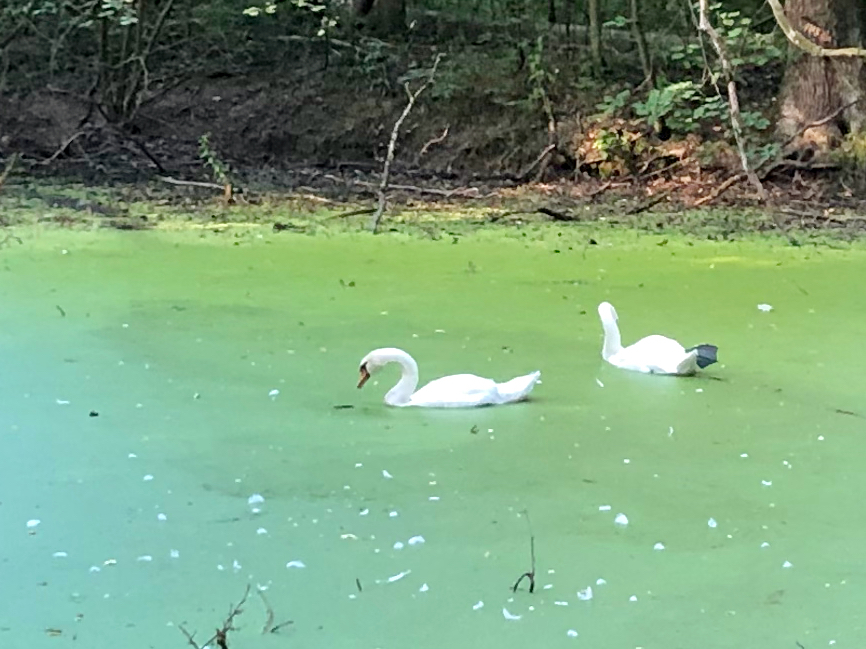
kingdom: Animalia
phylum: Chordata
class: Aves
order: Anseriformes
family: Anatidae
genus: Cygnus
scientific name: Cygnus olor
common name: Mute swan
